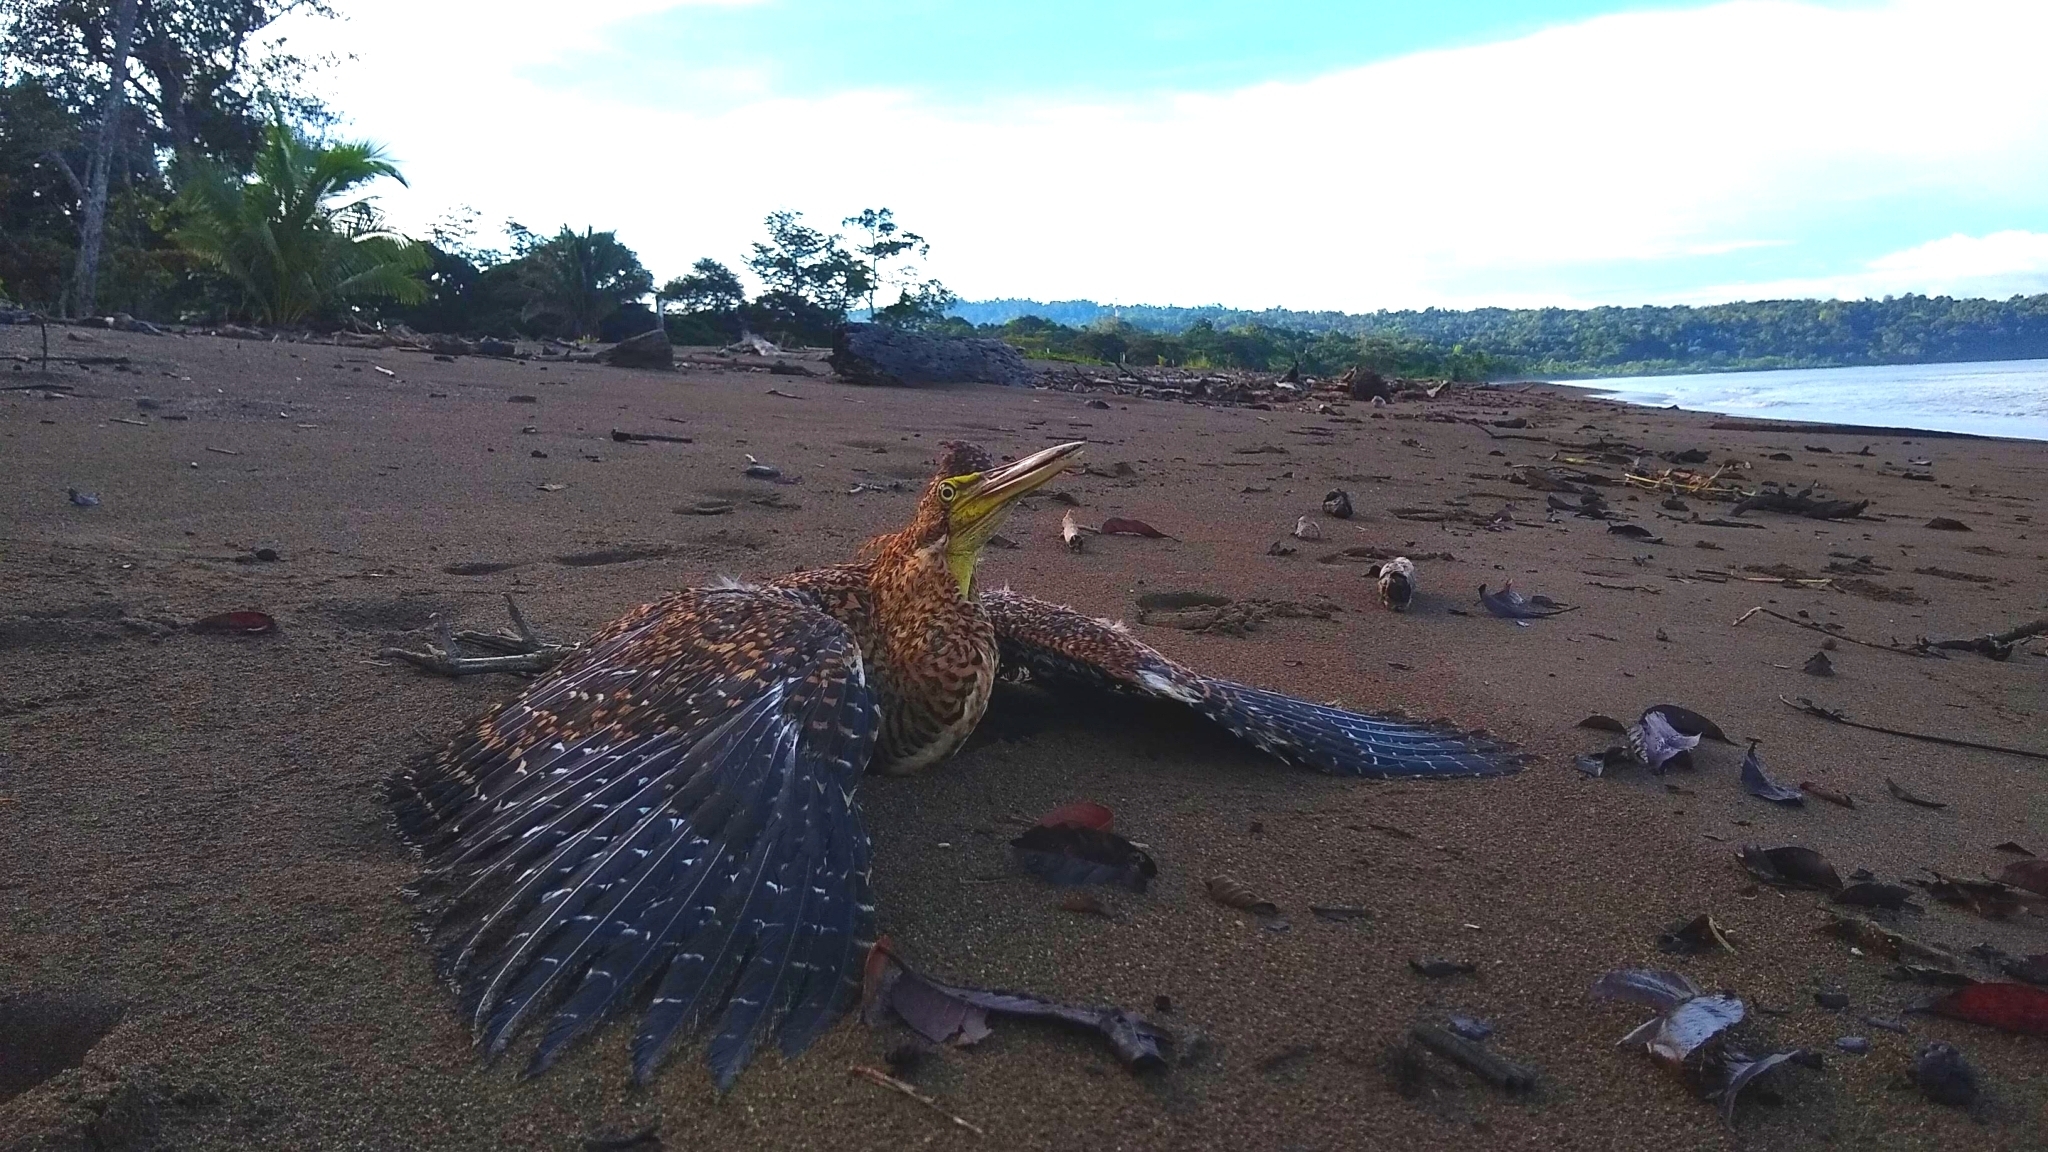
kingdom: Animalia
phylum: Chordata
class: Aves
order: Pelecaniformes
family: Ardeidae
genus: Tigrisoma
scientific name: Tigrisoma mexicanum
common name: Bare-throated tiger-heron
